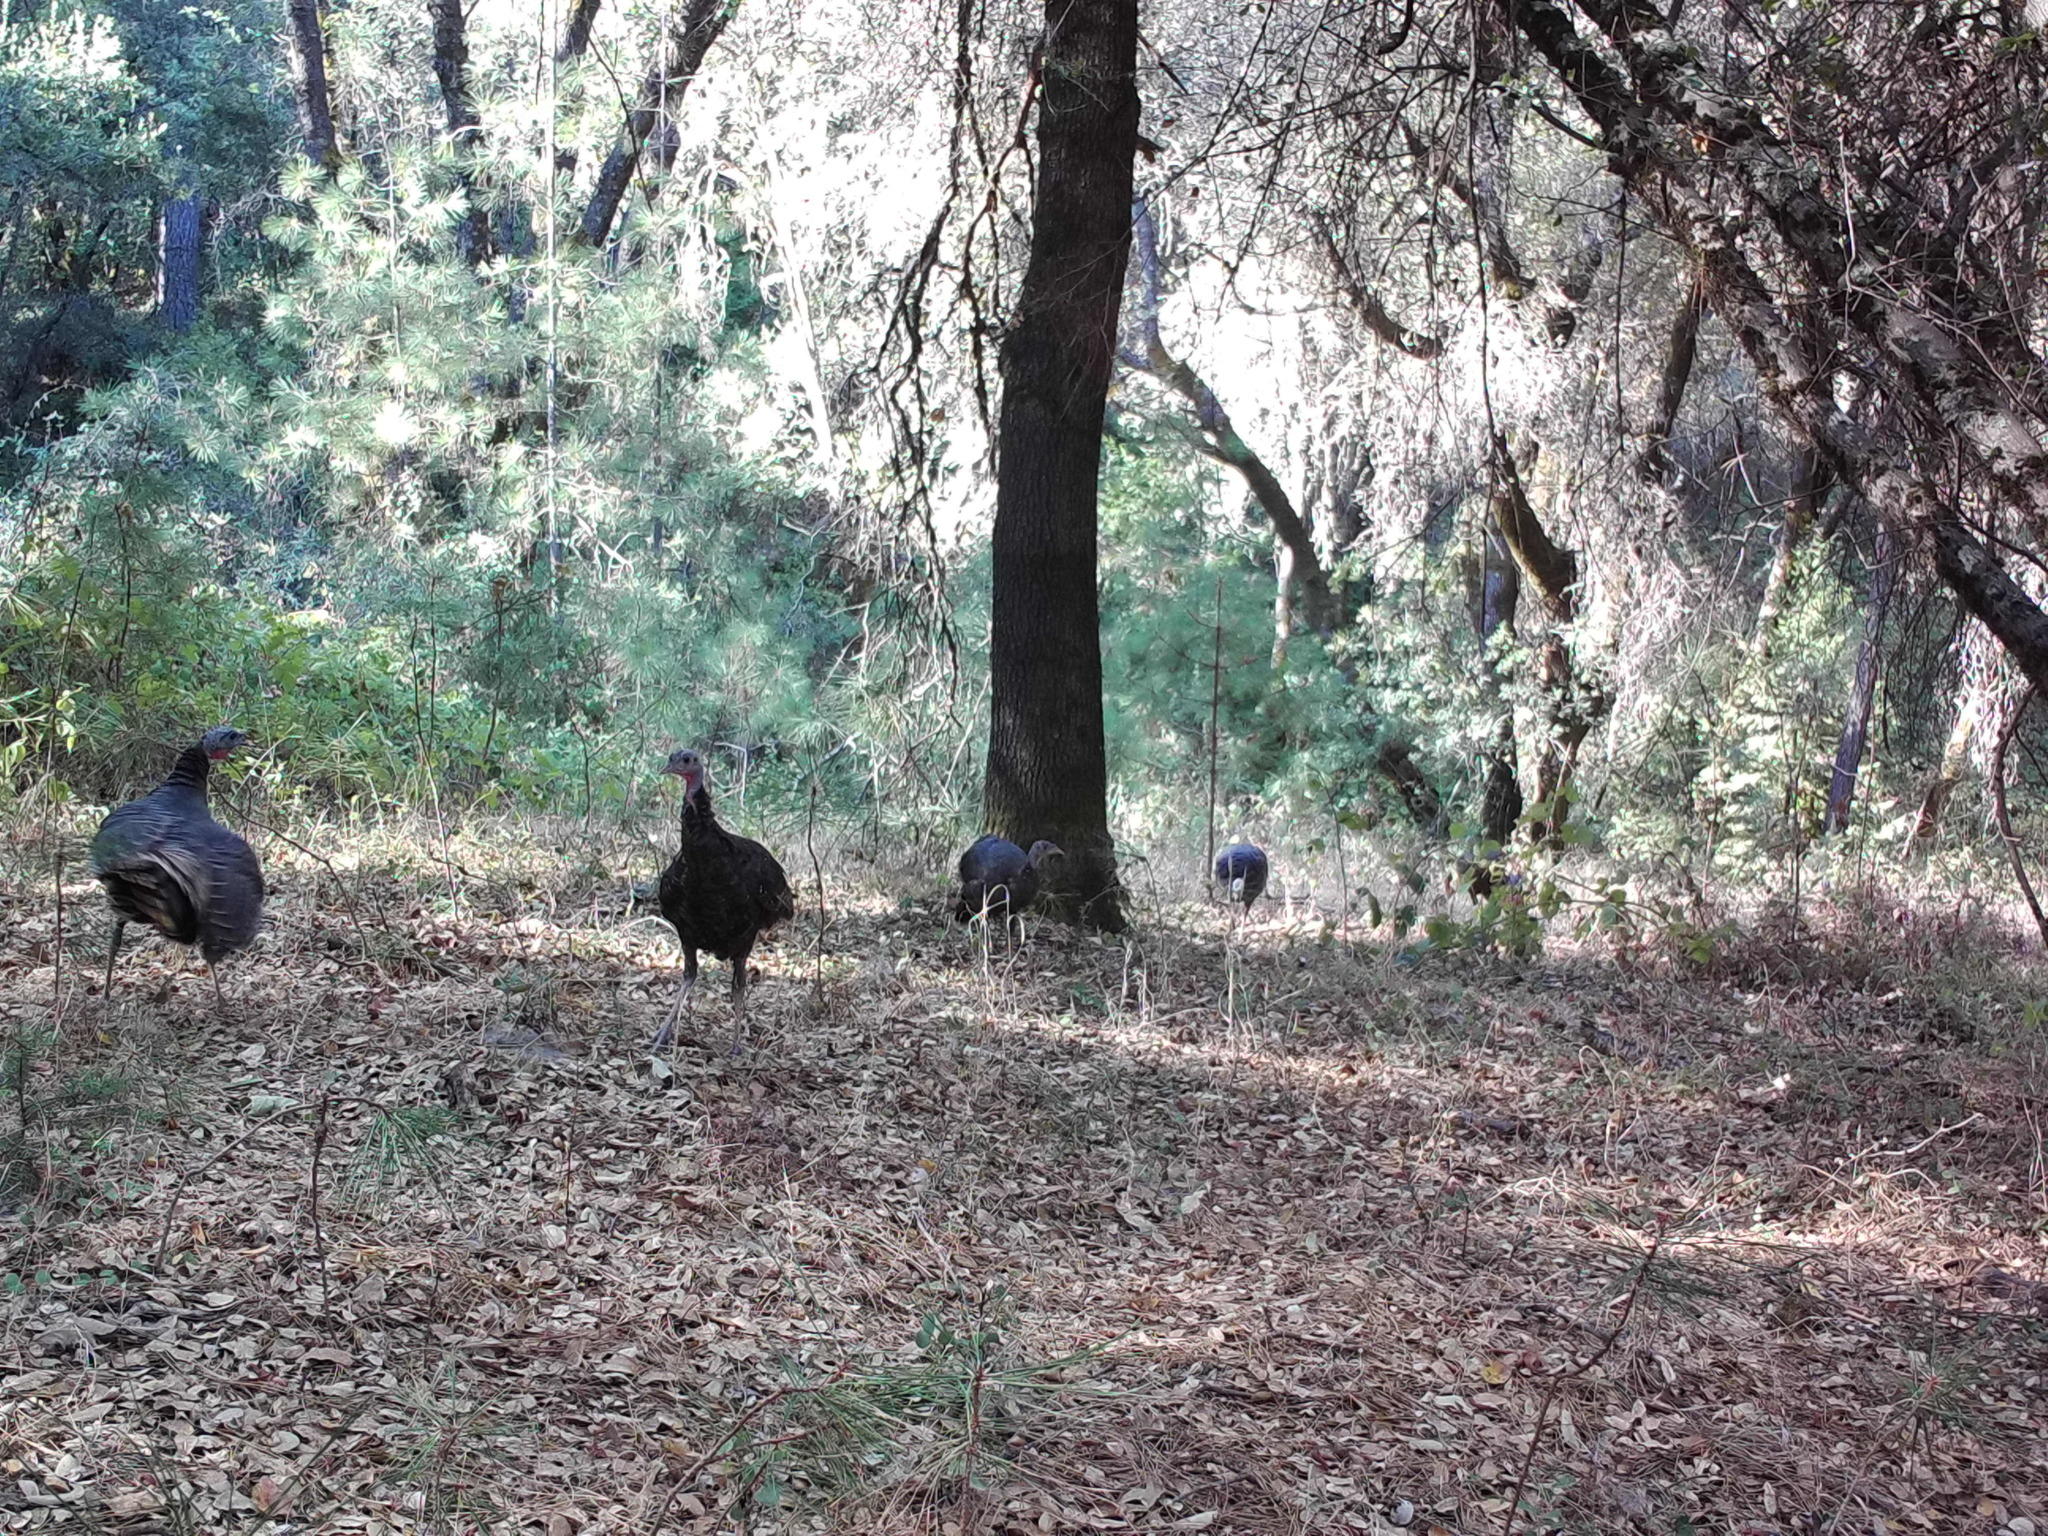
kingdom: Animalia
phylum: Chordata
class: Aves
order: Galliformes
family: Phasianidae
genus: Meleagris
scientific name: Meleagris gallopavo
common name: Wild turkey
